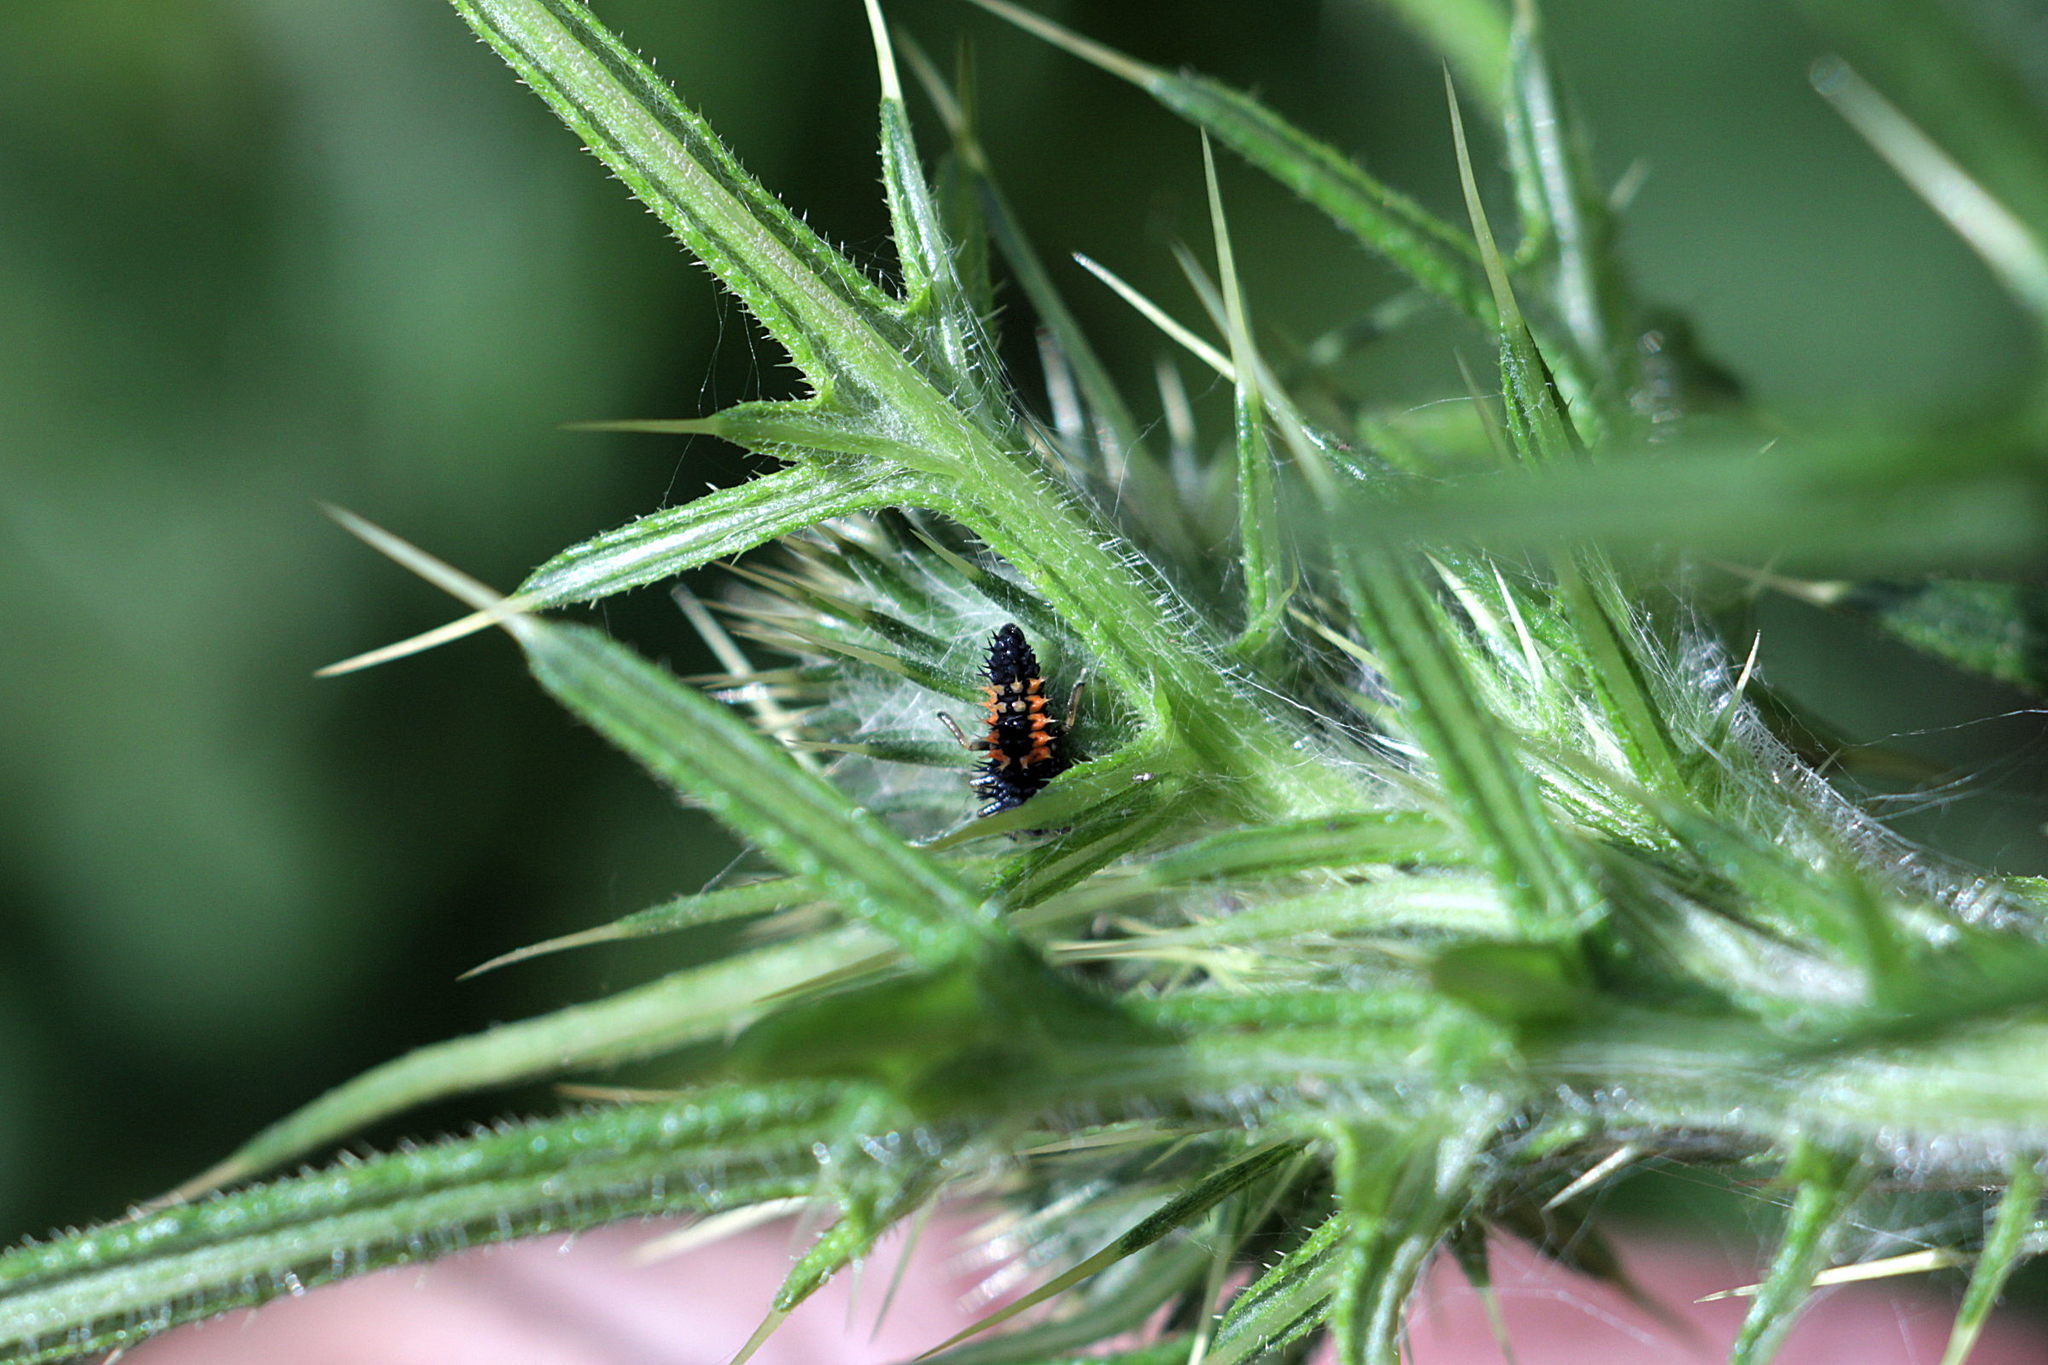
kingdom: Animalia
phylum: Arthropoda
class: Insecta
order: Coleoptera
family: Coccinellidae
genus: Harmonia
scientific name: Harmonia axyridis
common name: Harlequin ladybird
